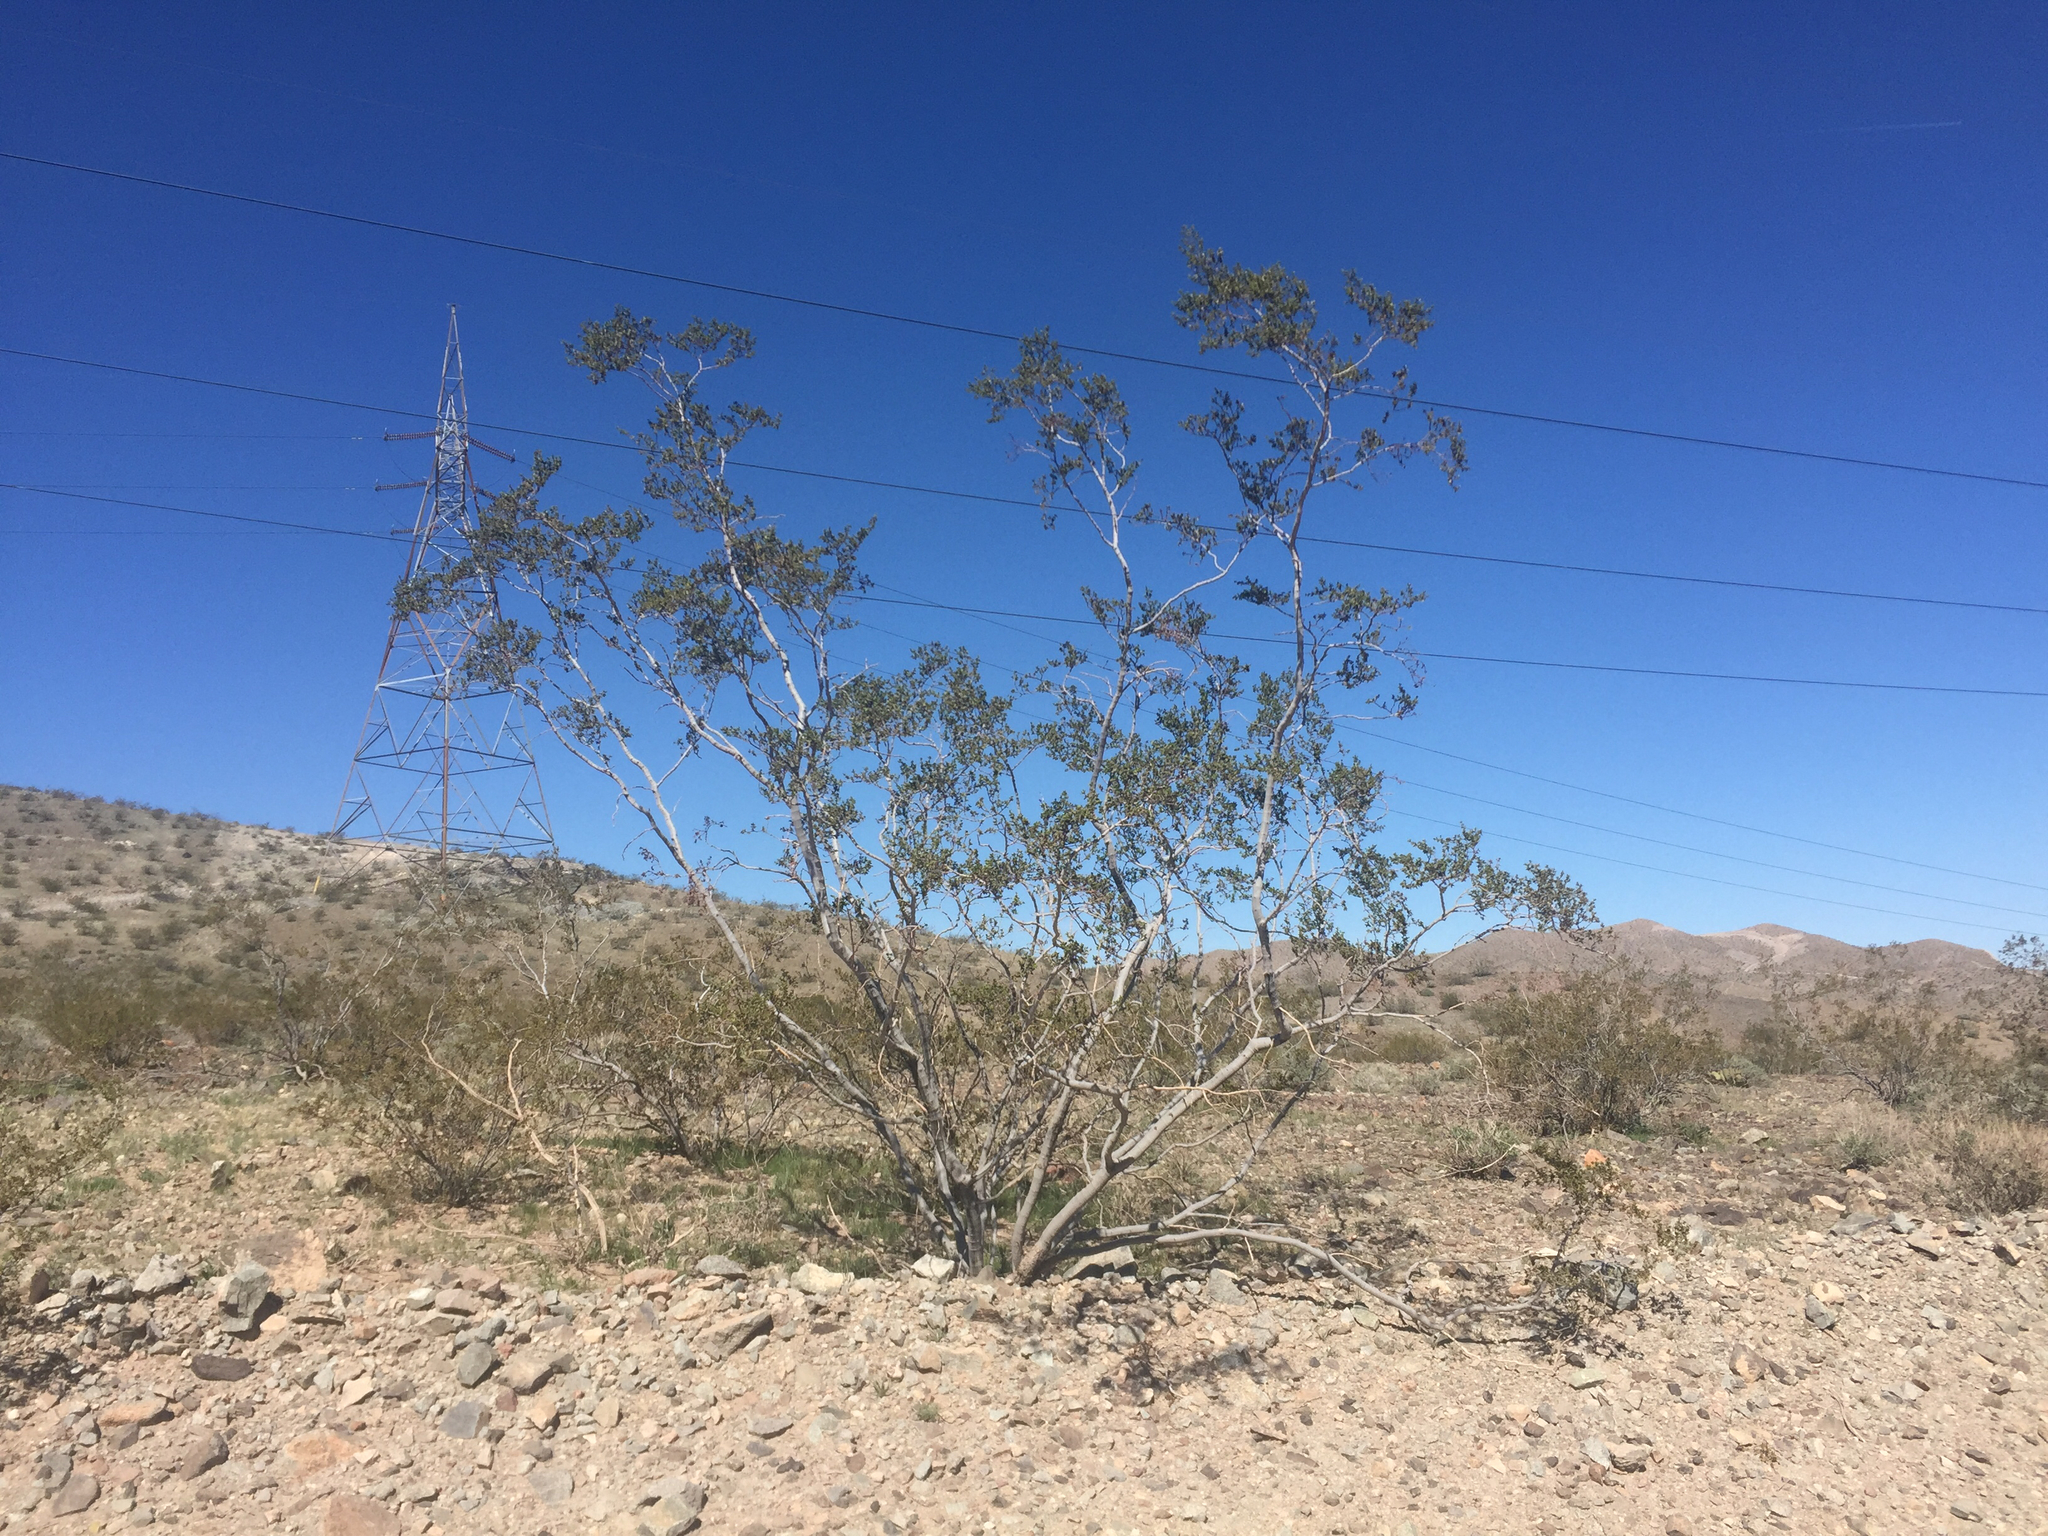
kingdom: Plantae
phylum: Tracheophyta
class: Magnoliopsida
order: Zygophyllales
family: Zygophyllaceae
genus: Larrea
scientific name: Larrea tridentata
